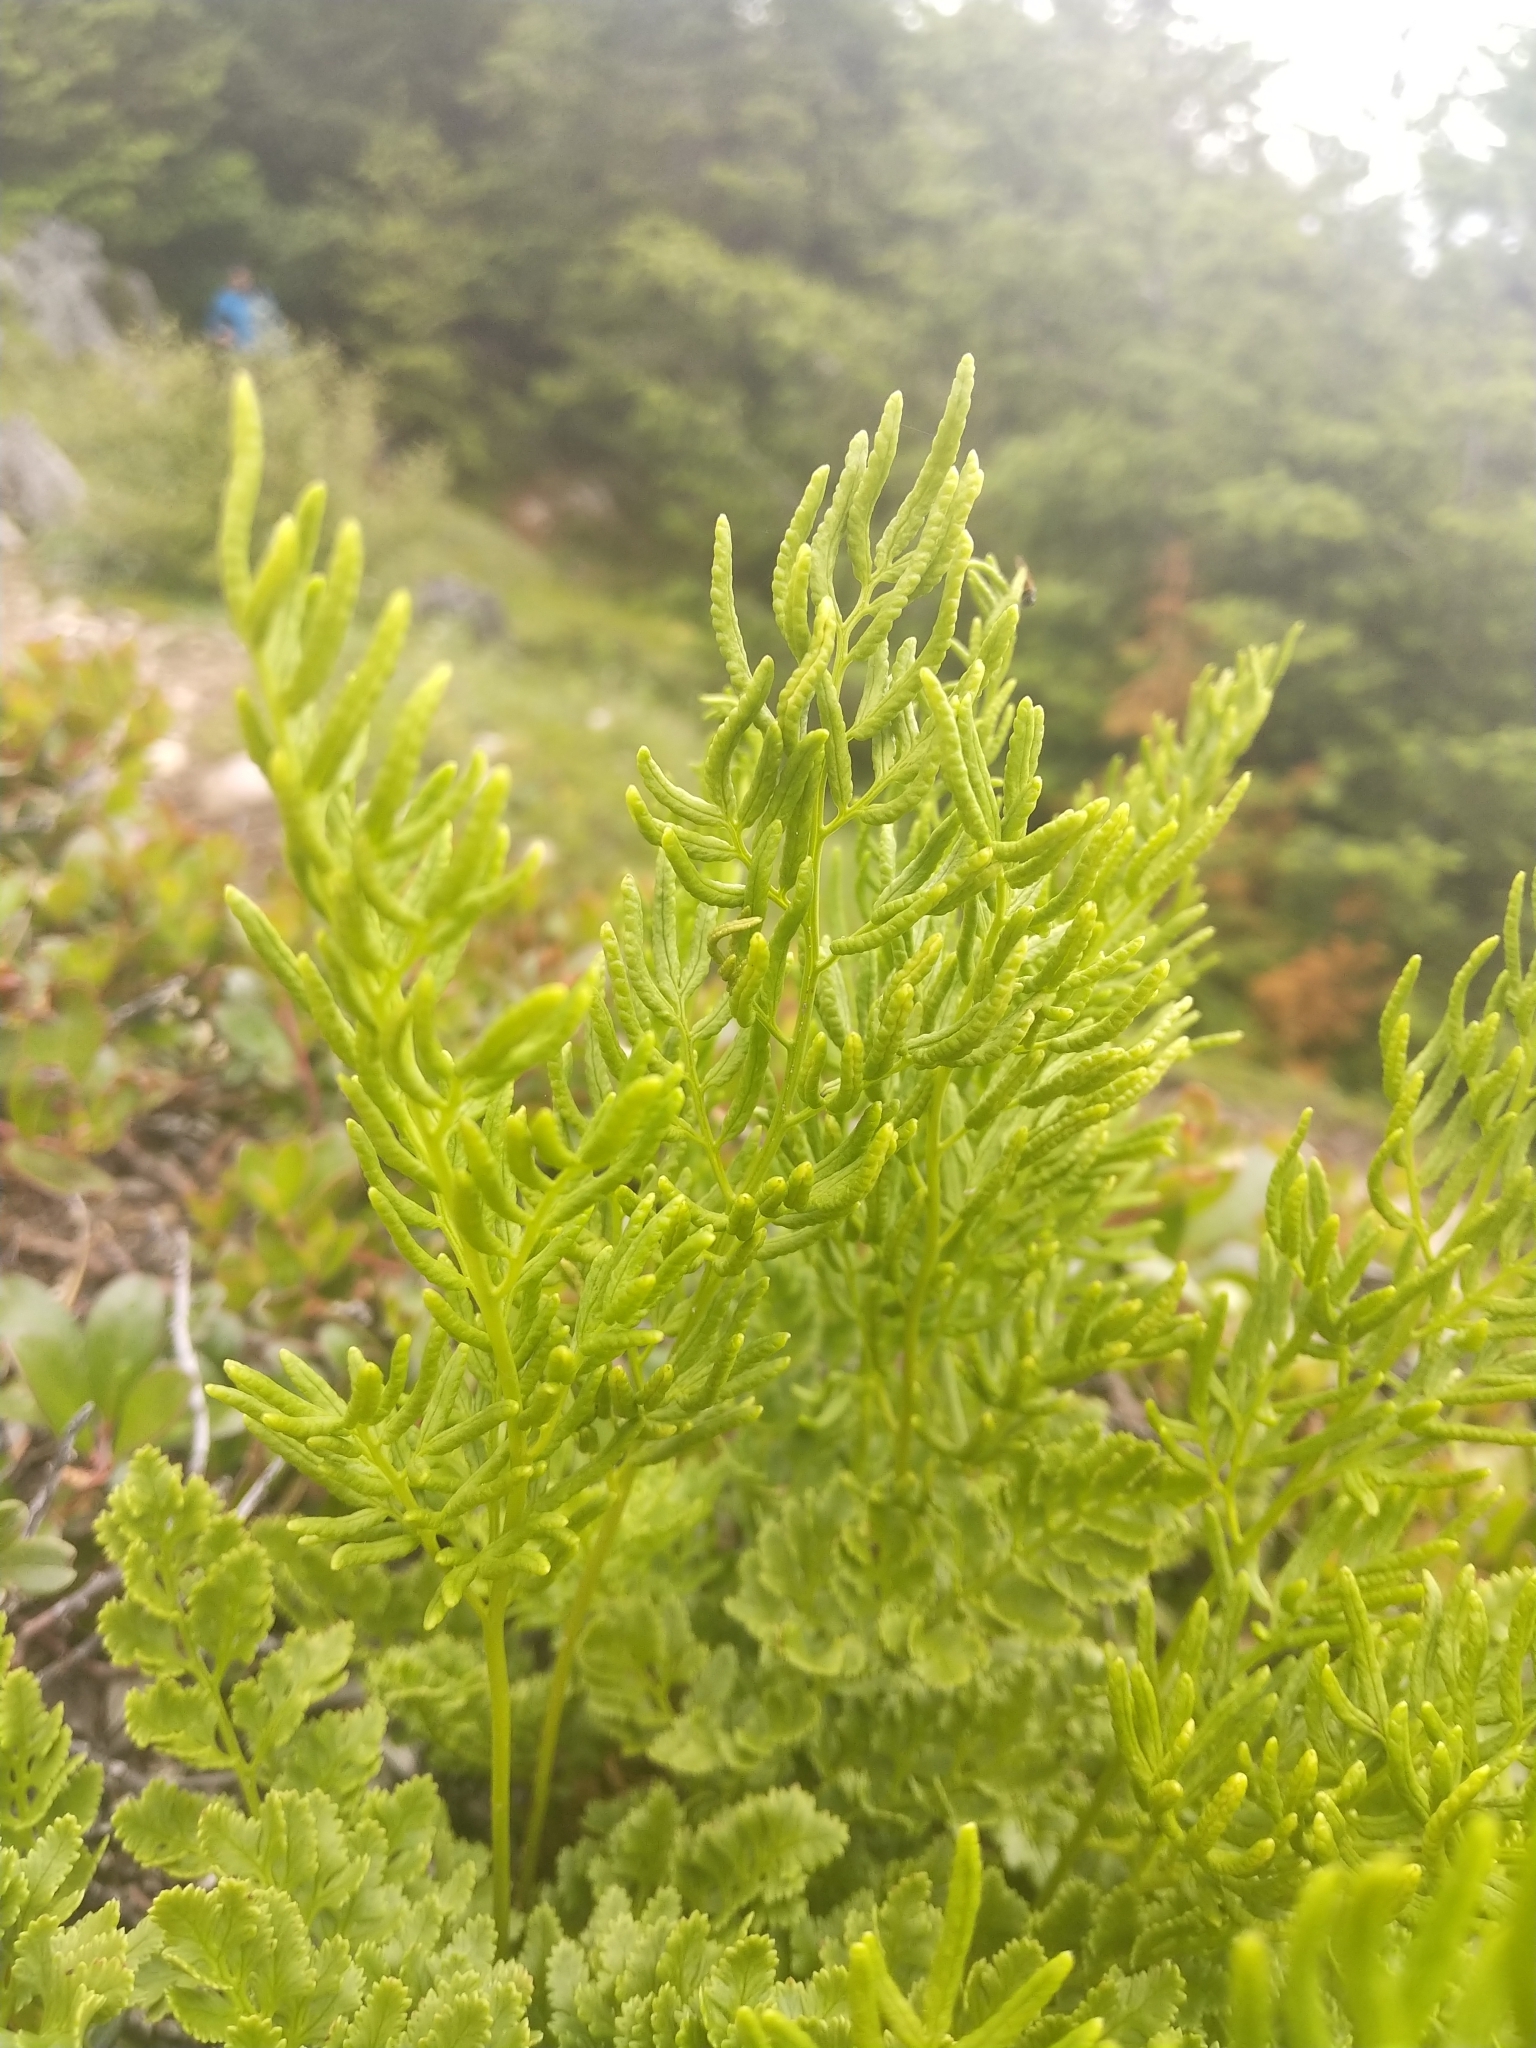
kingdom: Plantae
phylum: Tracheophyta
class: Polypodiopsida
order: Polypodiales
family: Pteridaceae
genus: Cryptogramma
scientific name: Cryptogramma acrostichoides
